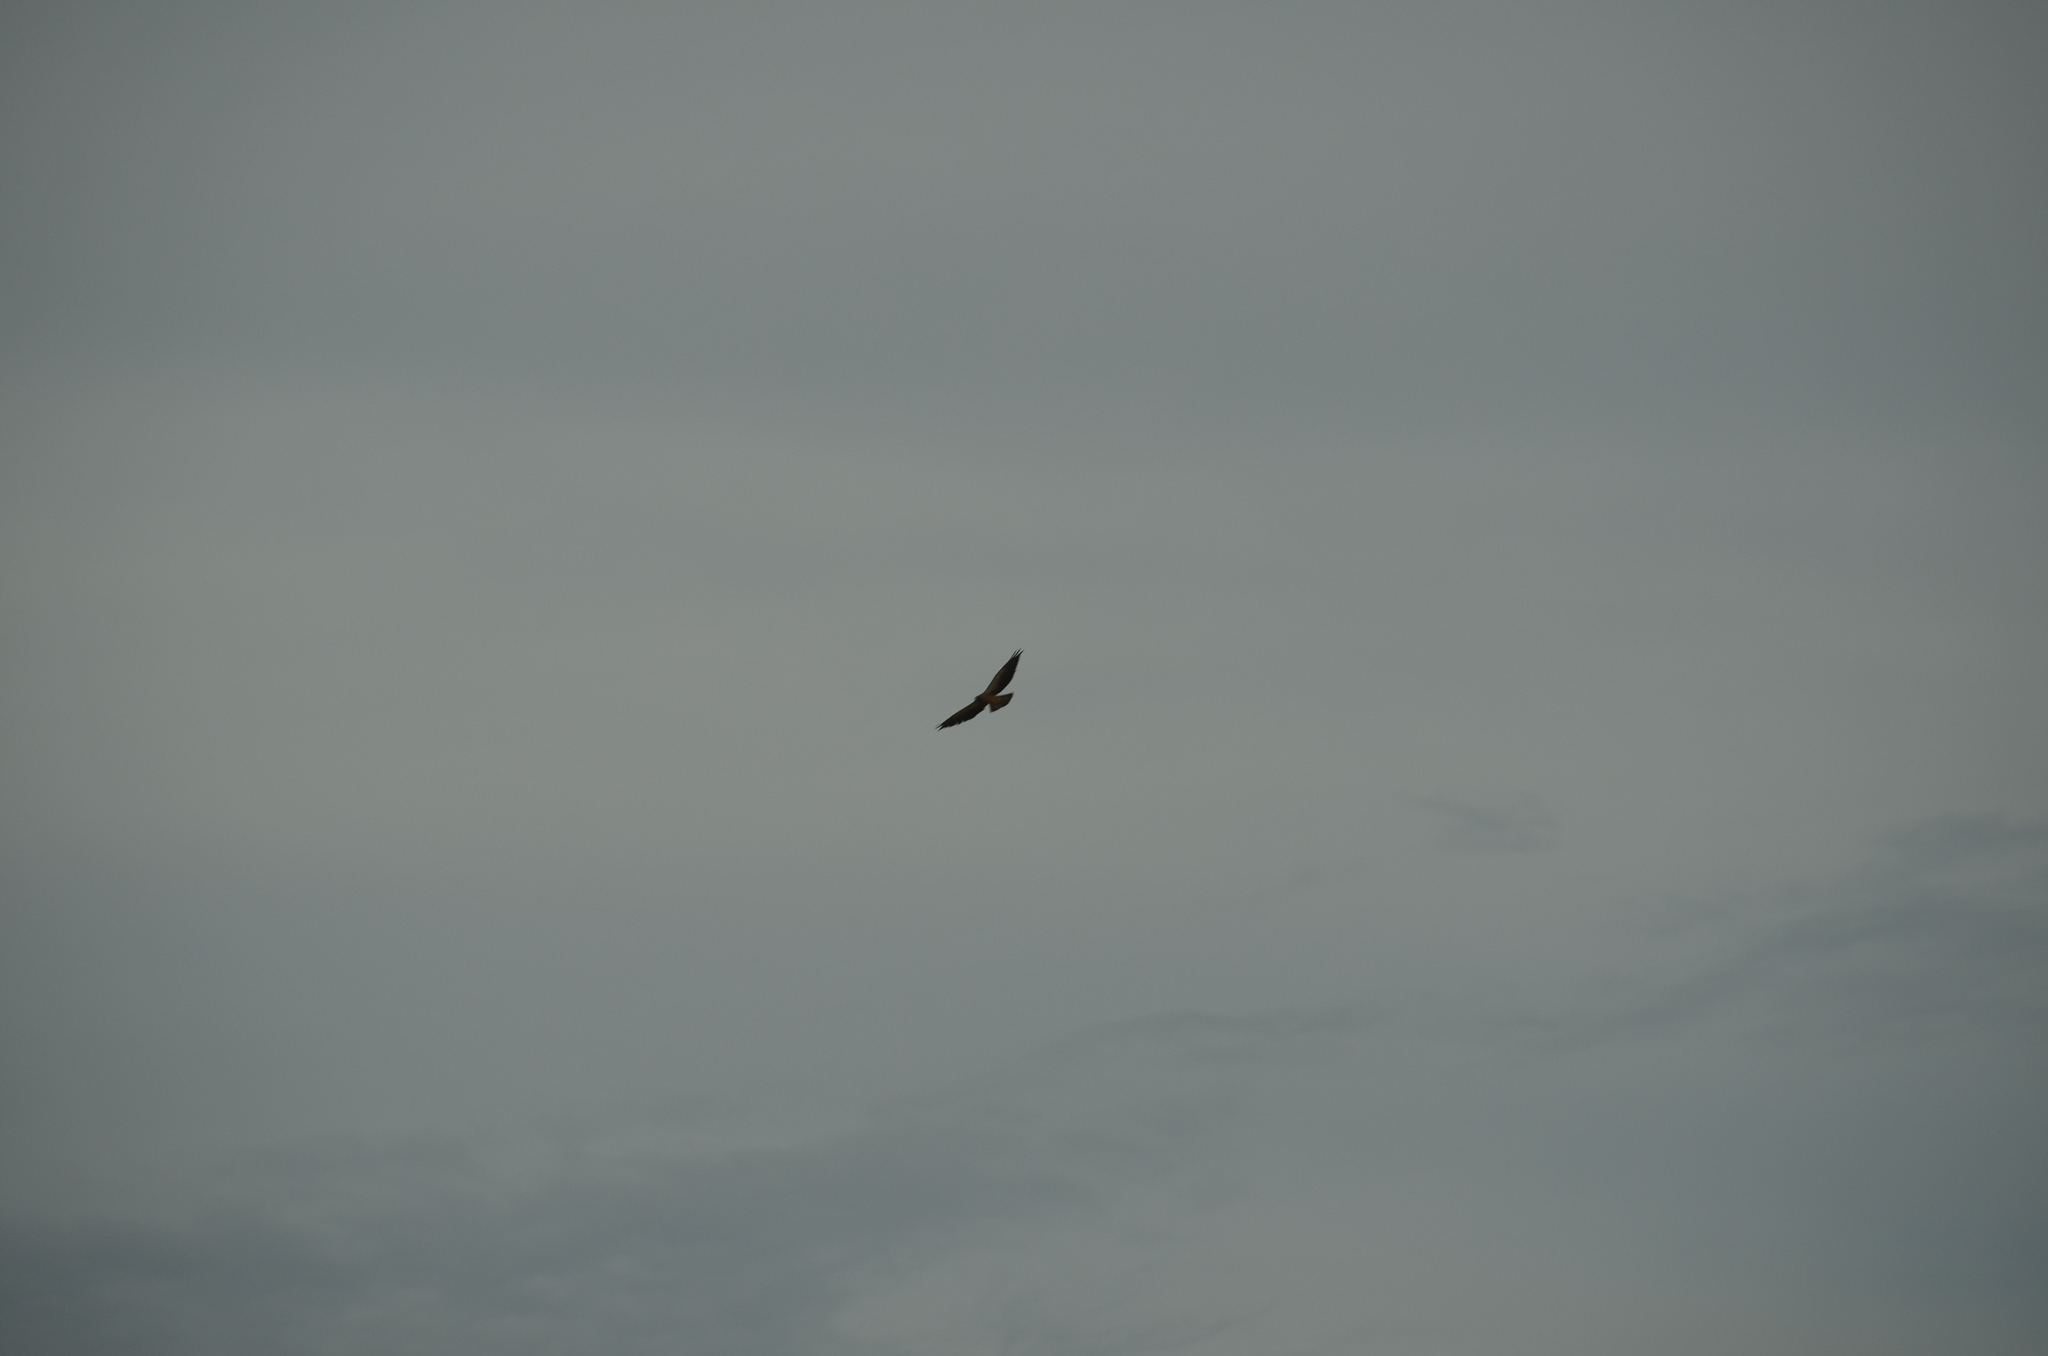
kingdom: Animalia
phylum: Chordata
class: Aves
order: Accipitriformes
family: Accipitridae
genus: Buteo
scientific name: Buteo swainsoni
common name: Swainson's hawk
